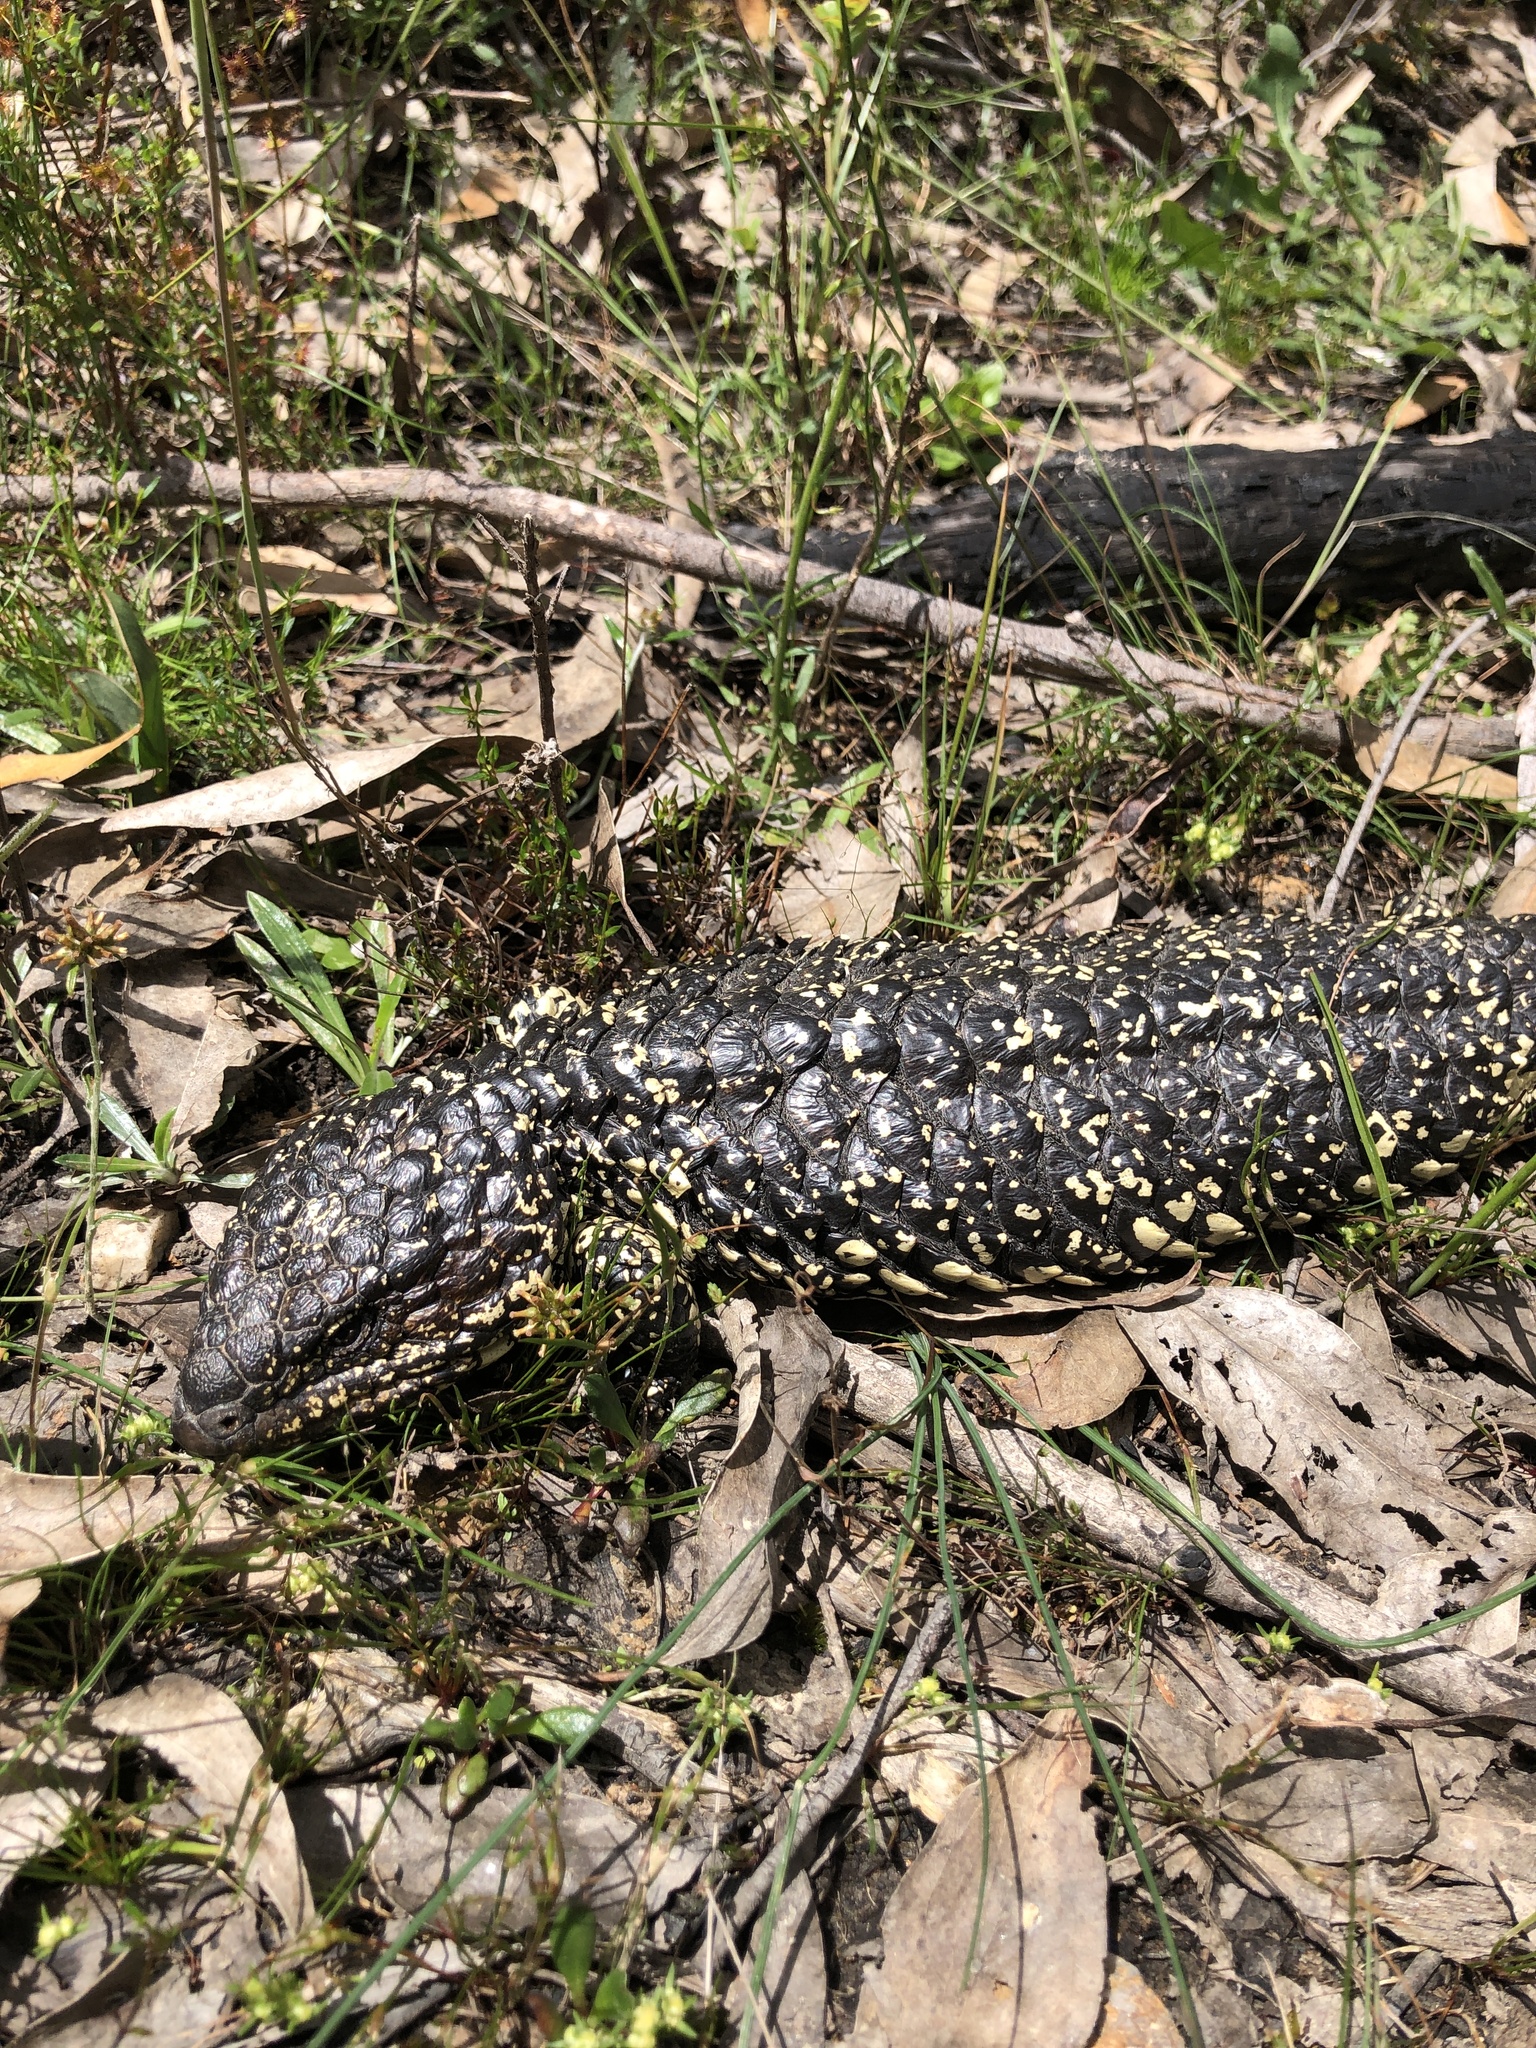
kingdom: Animalia
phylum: Chordata
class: Squamata
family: Scincidae
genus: Tiliqua
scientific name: Tiliqua rugosa
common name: Pinecone lizard
